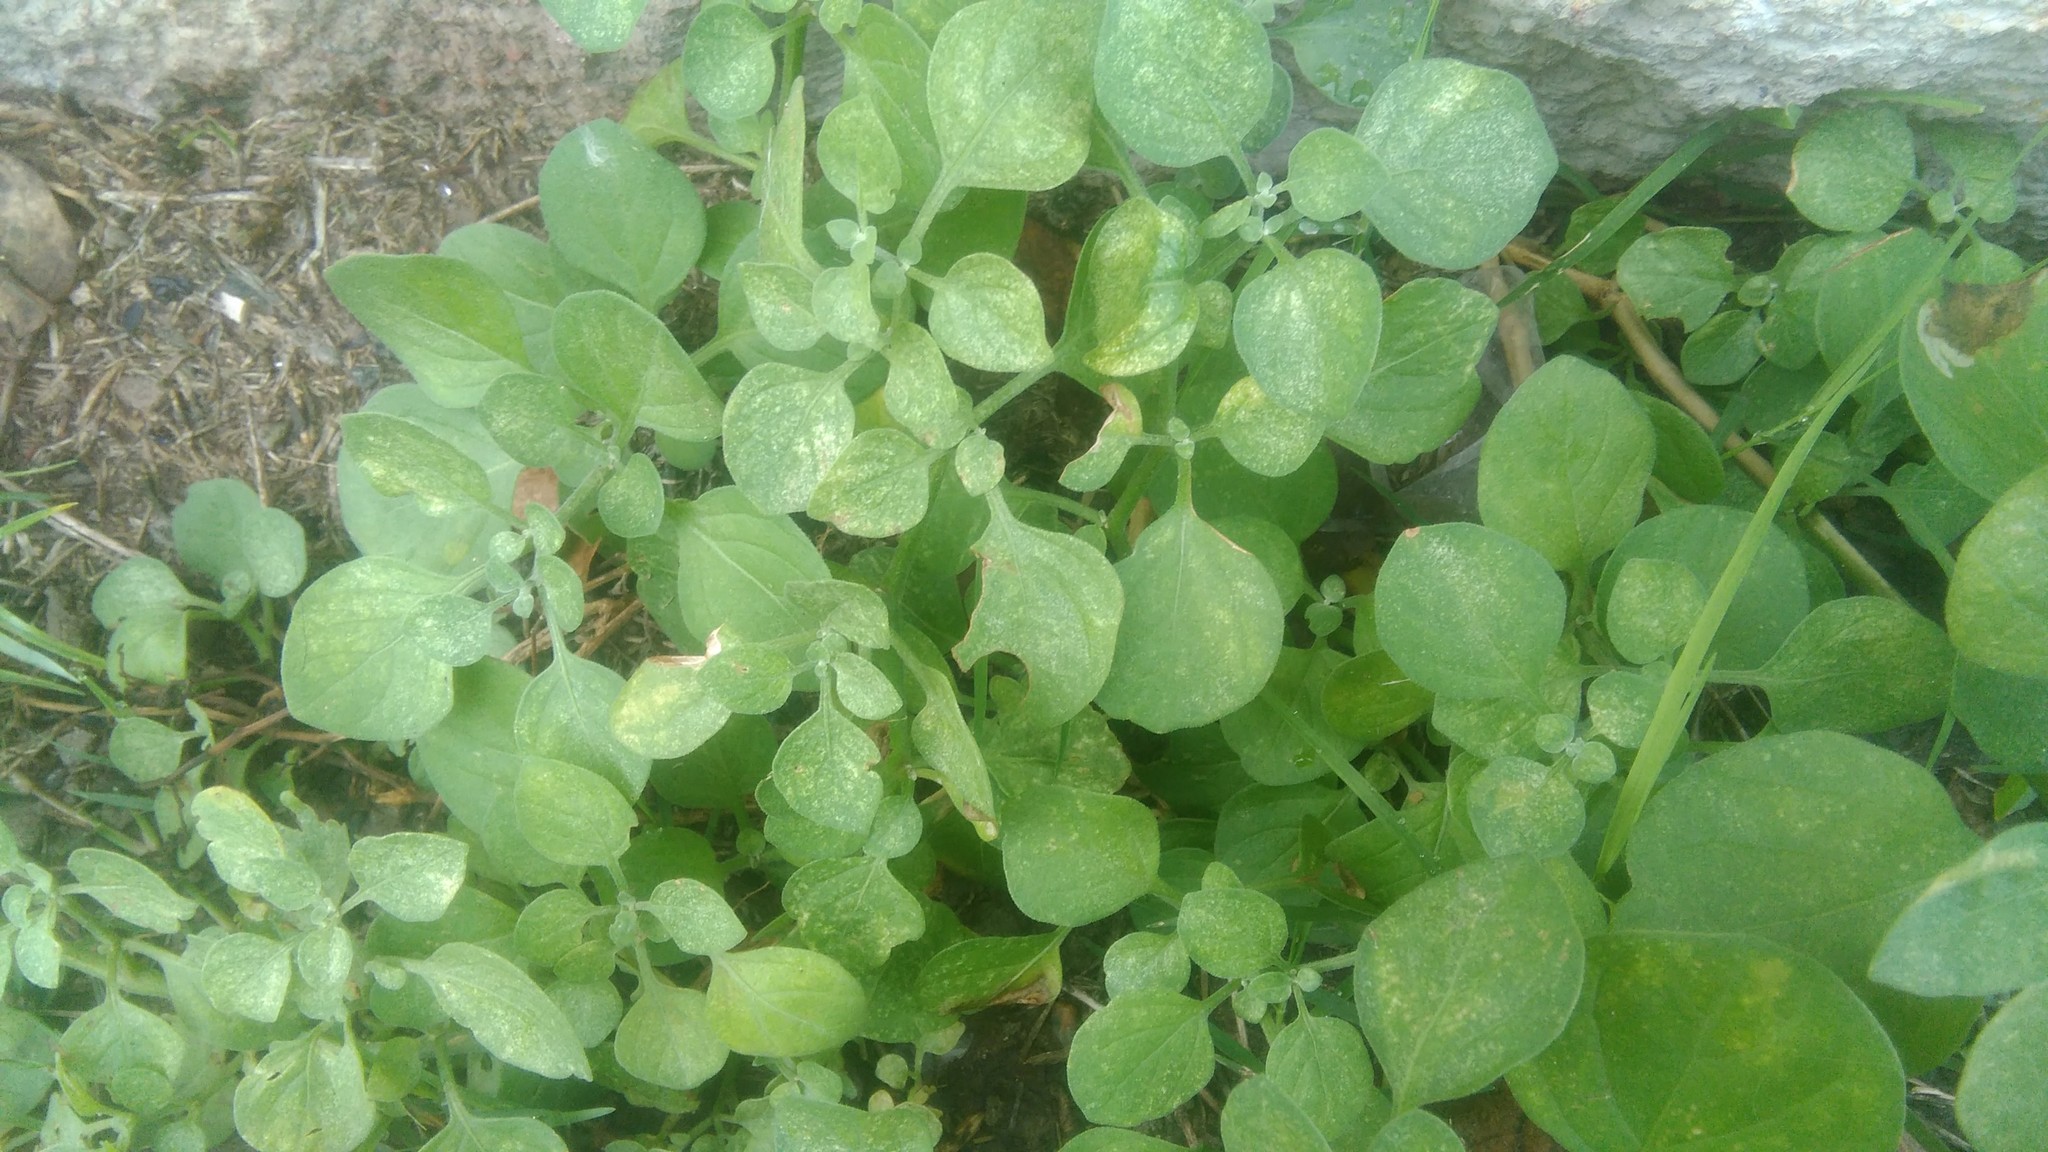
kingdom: Plantae
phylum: Tracheophyta
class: Magnoliopsida
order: Solanales
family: Solanaceae
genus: Salpichroa
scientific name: Salpichroa origanifolia
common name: Lily-of-the-valley-vine
